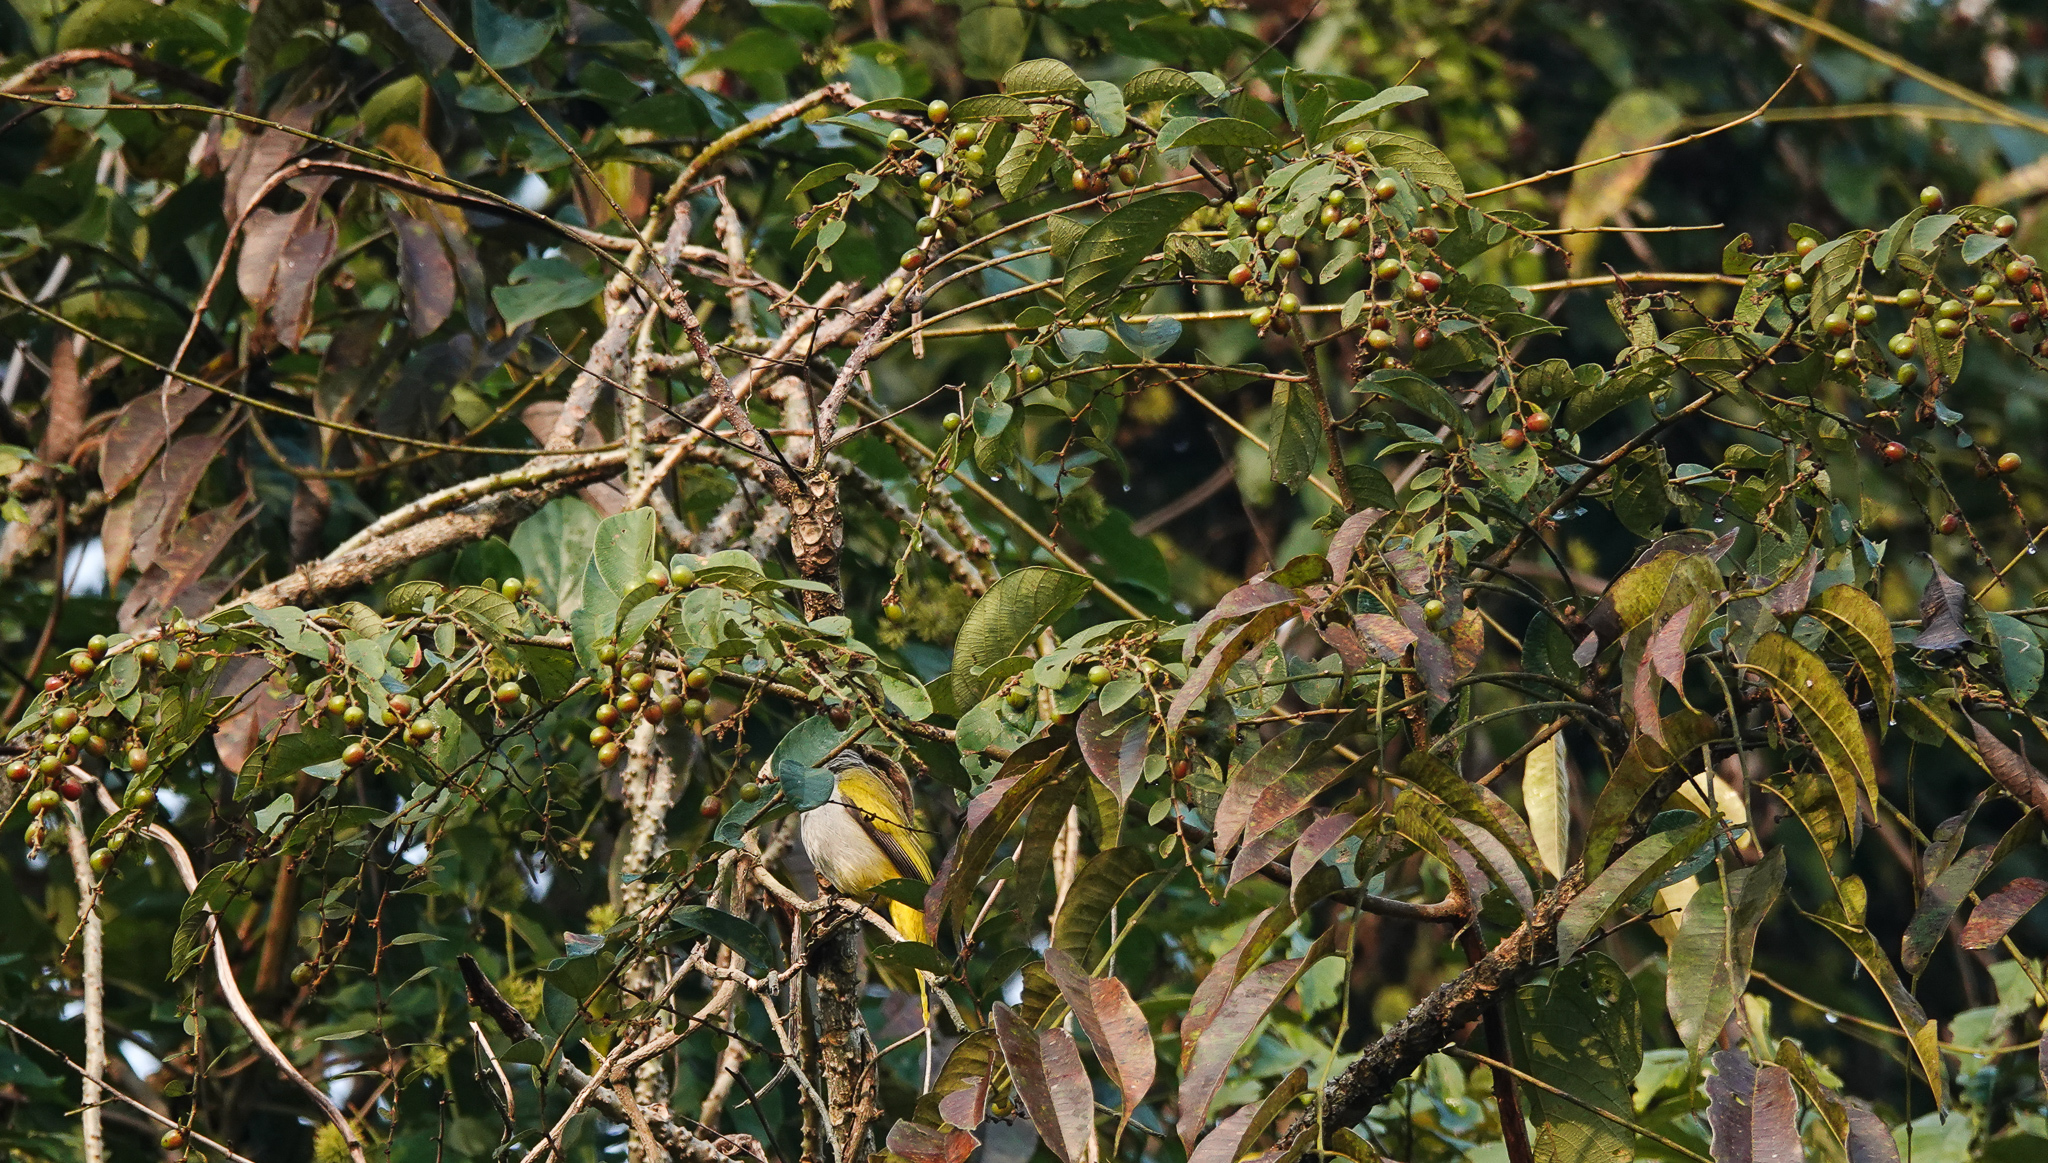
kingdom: Animalia
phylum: Chordata
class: Aves
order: Passeriformes
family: Pycnonotidae
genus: Microtarsus
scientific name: Microtarsus
